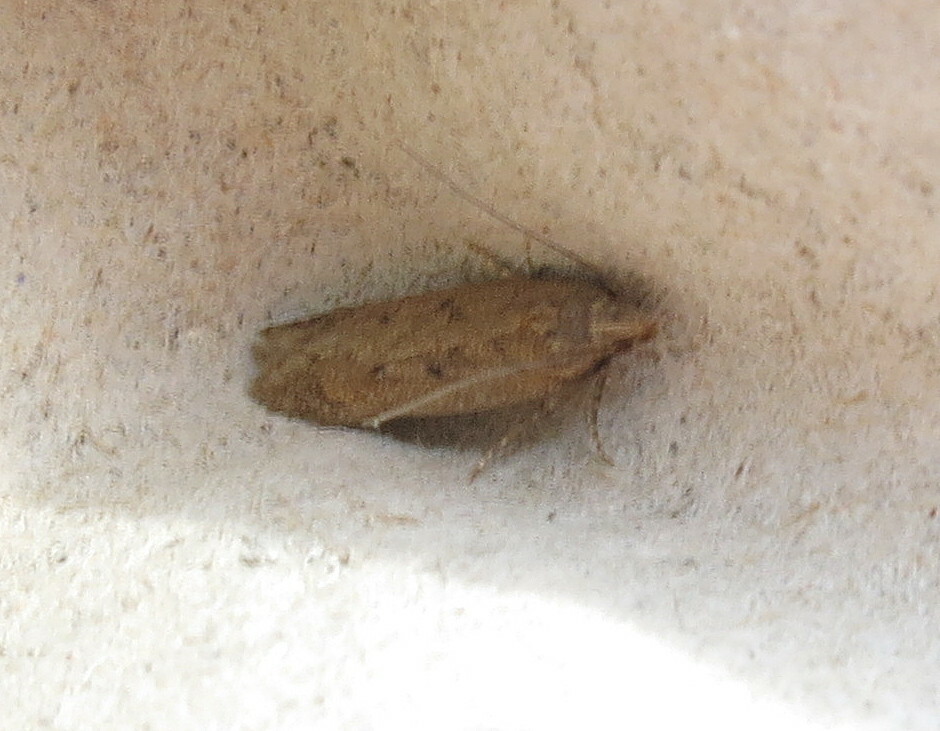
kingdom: Animalia
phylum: Arthropoda
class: Insecta
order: Lepidoptera
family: Gelechiidae
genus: Bryotropha
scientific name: Bryotropha terrella
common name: Cinerous groundling
